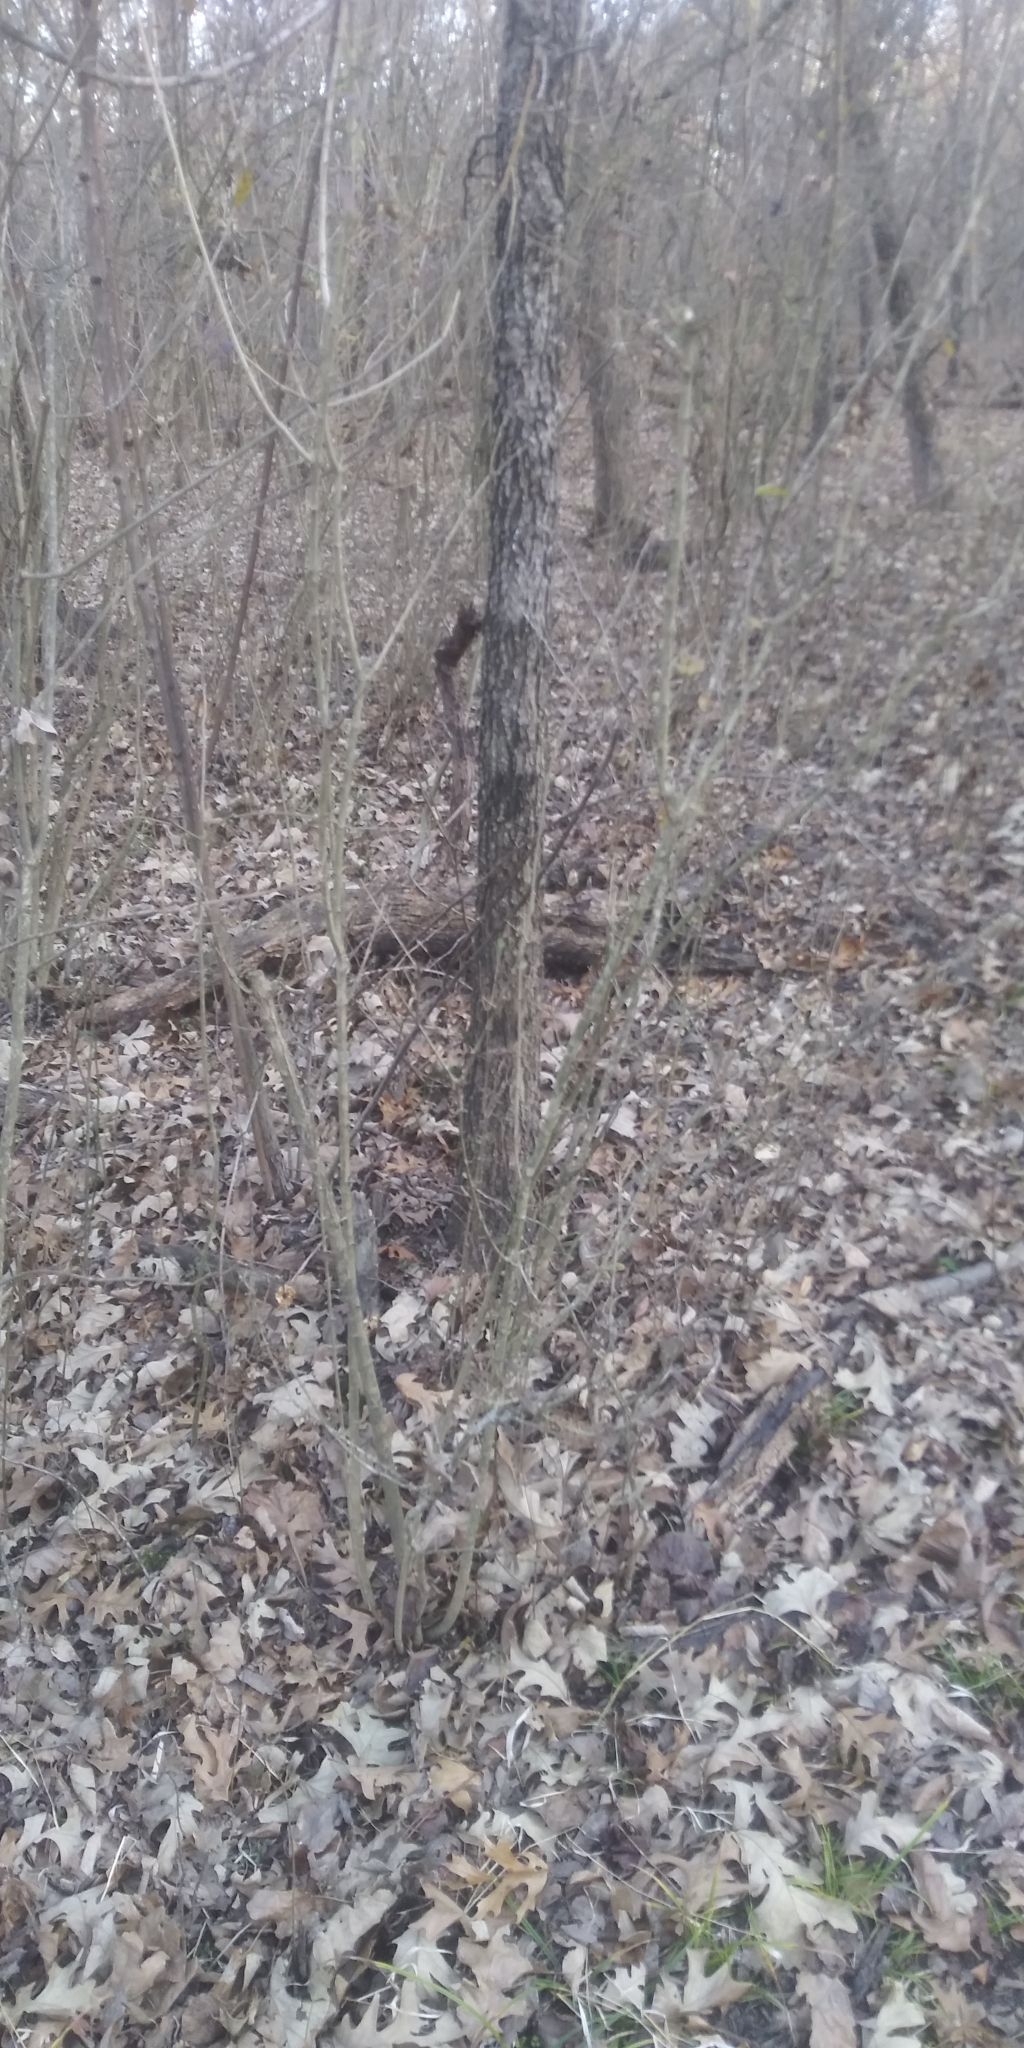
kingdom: Plantae
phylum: Tracheophyta
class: Magnoliopsida
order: Lamiales
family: Oleaceae
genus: Ligustrum
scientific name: Ligustrum quihoui
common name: Waxyleaf privet
